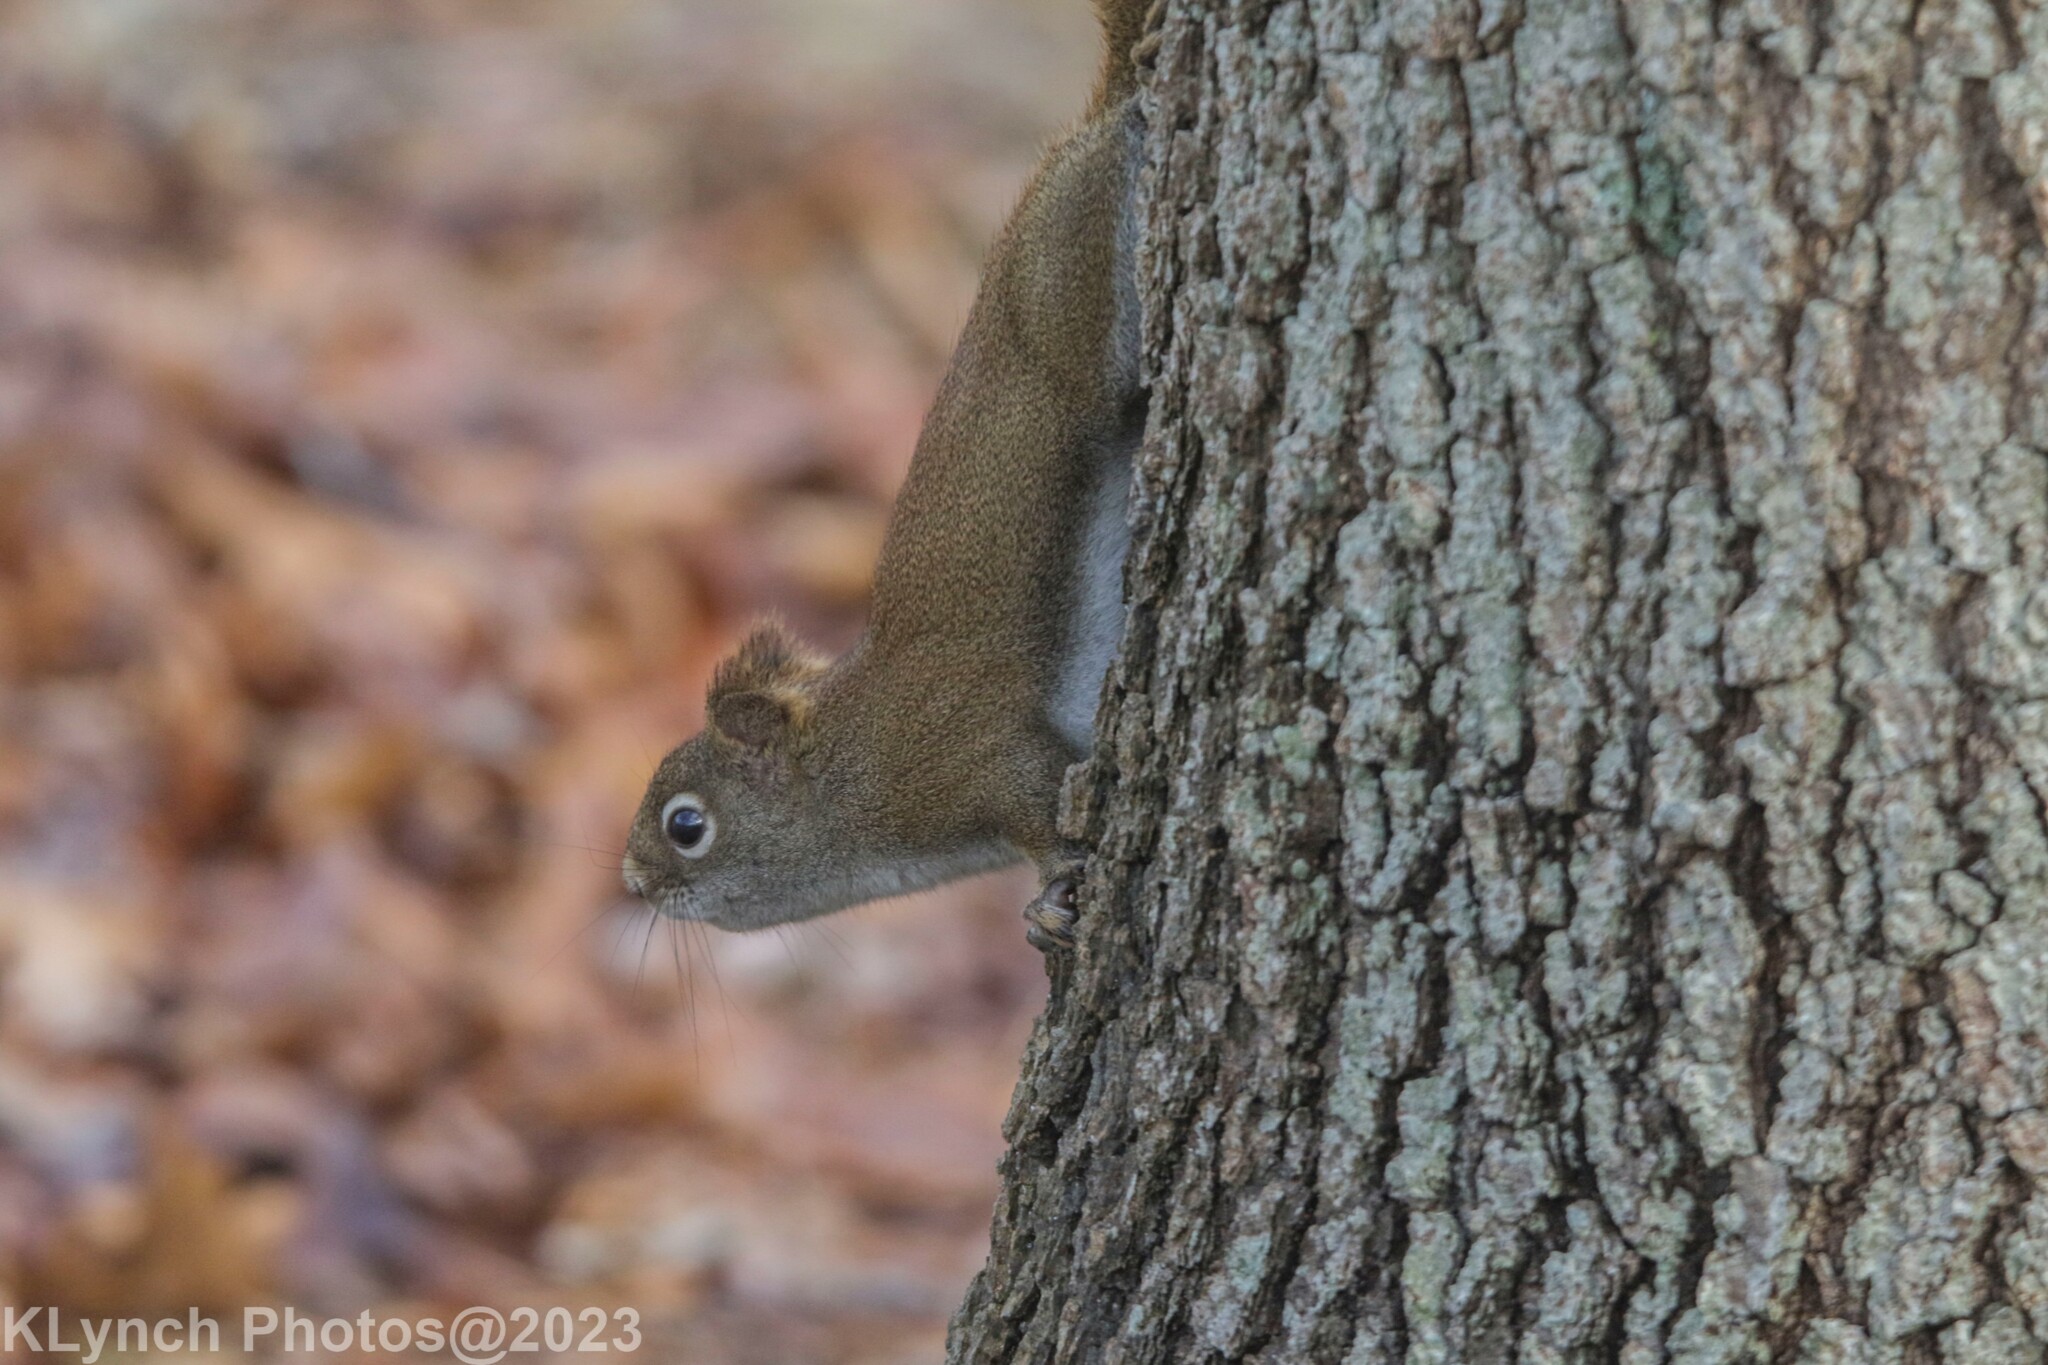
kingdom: Animalia
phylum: Chordata
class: Mammalia
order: Rodentia
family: Sciuridae
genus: Tamiasciurus
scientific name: Tamiasciurus hudsonicus
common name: Red squirrel
